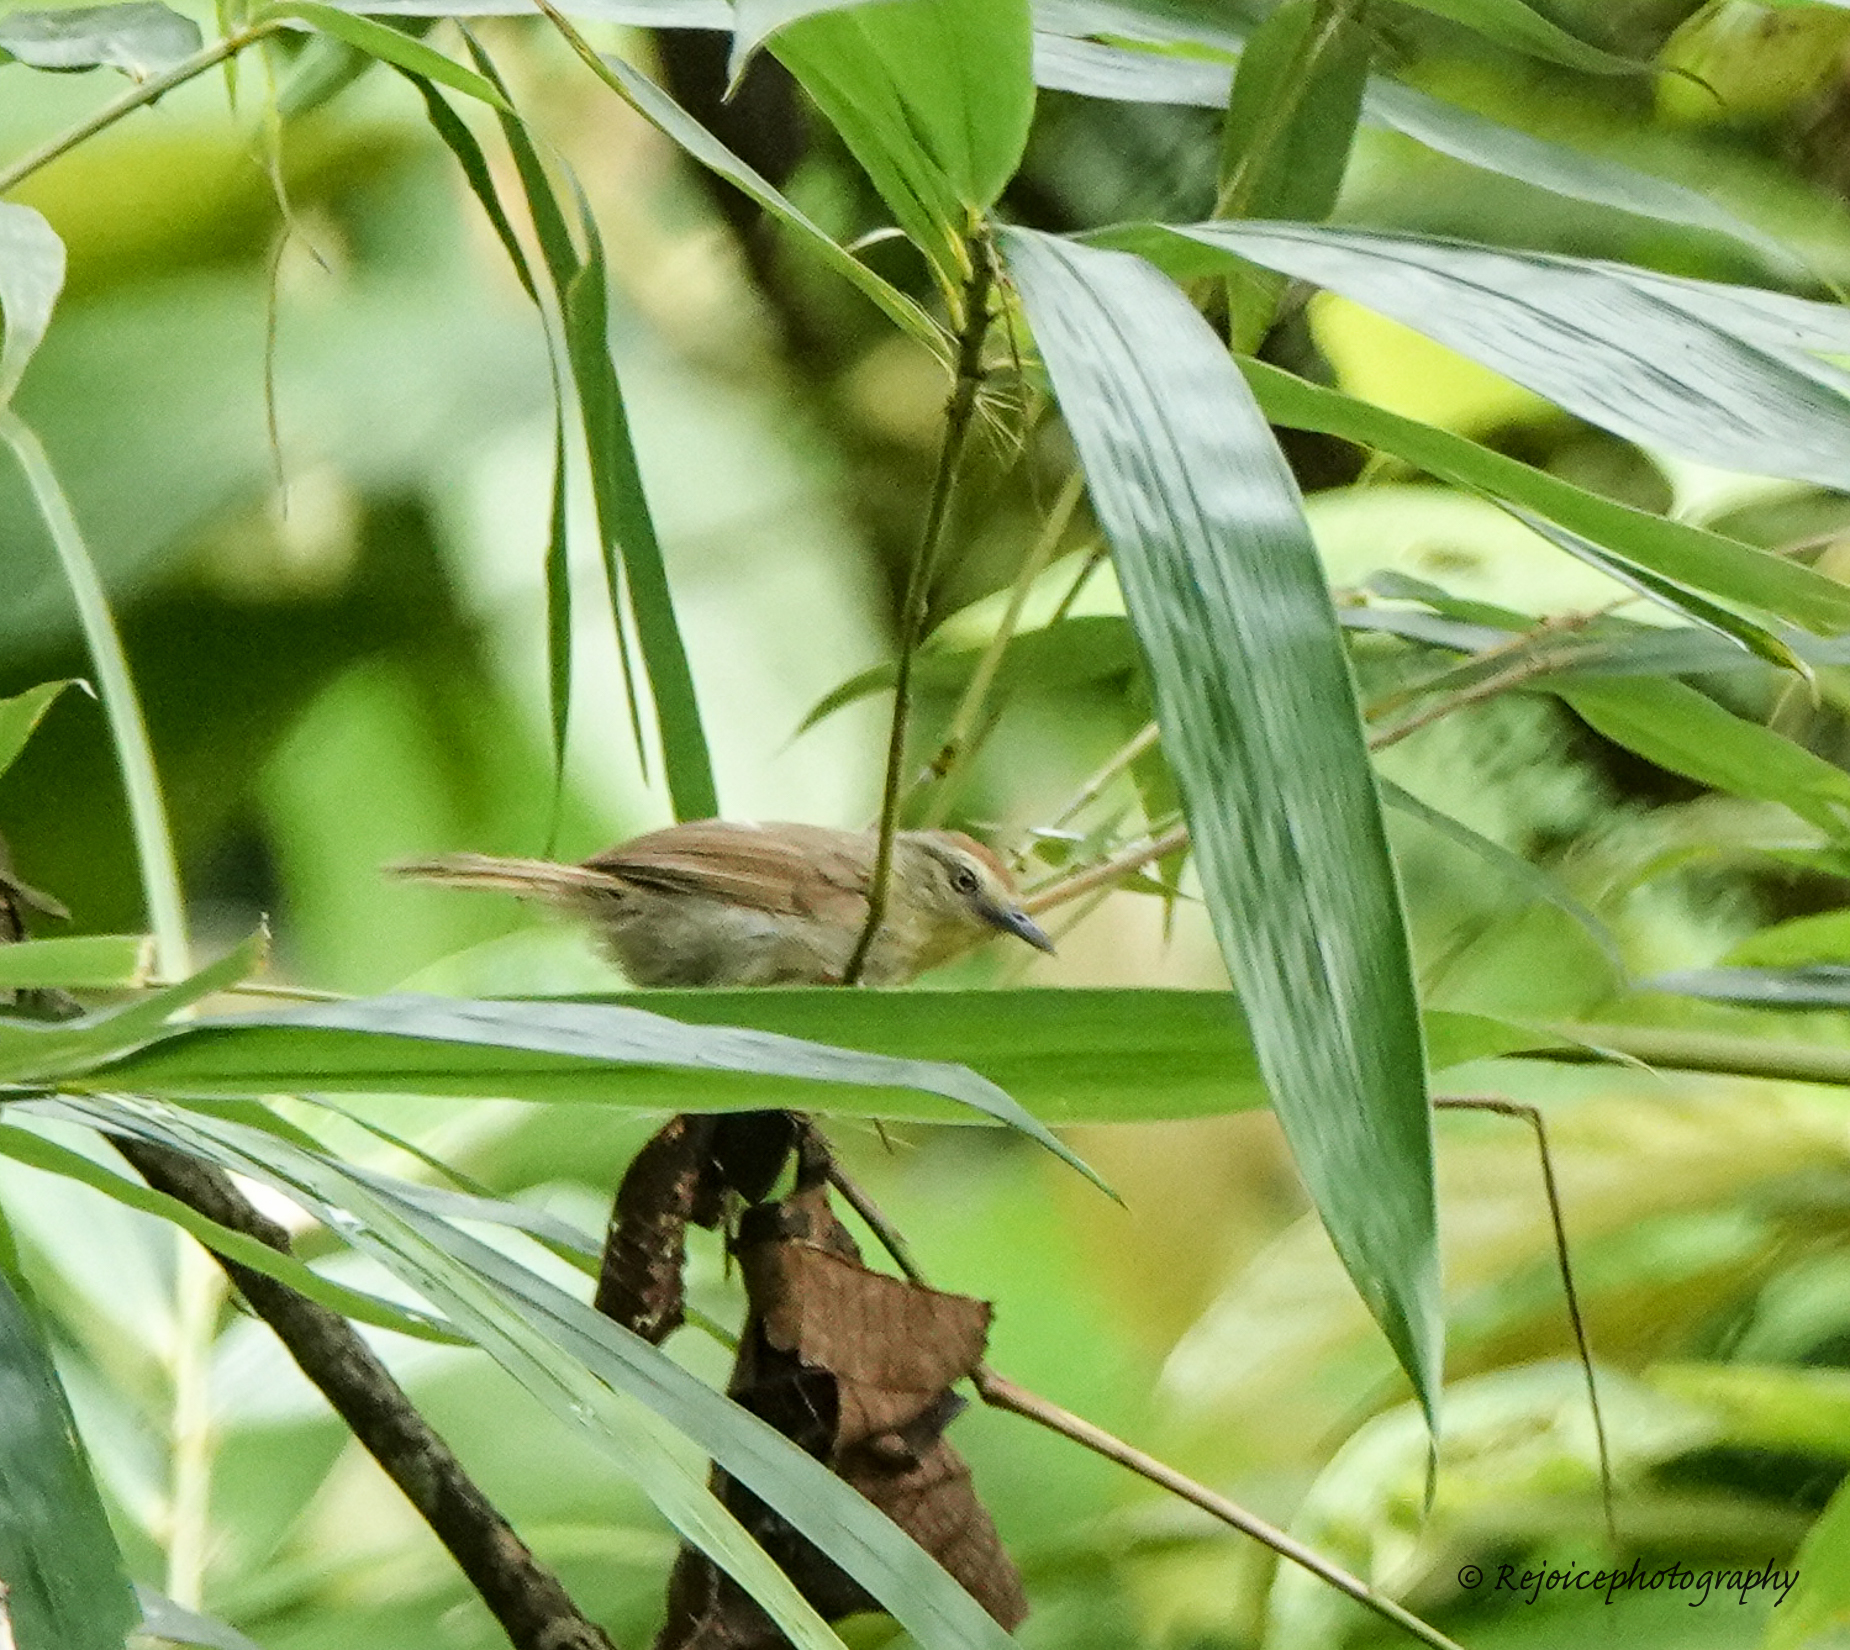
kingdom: Animalia
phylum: Chordata
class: Aves
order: Passeriformes
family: Timaliidae
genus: Macronus
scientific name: Macronus gularis
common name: Striped tit-babbler
